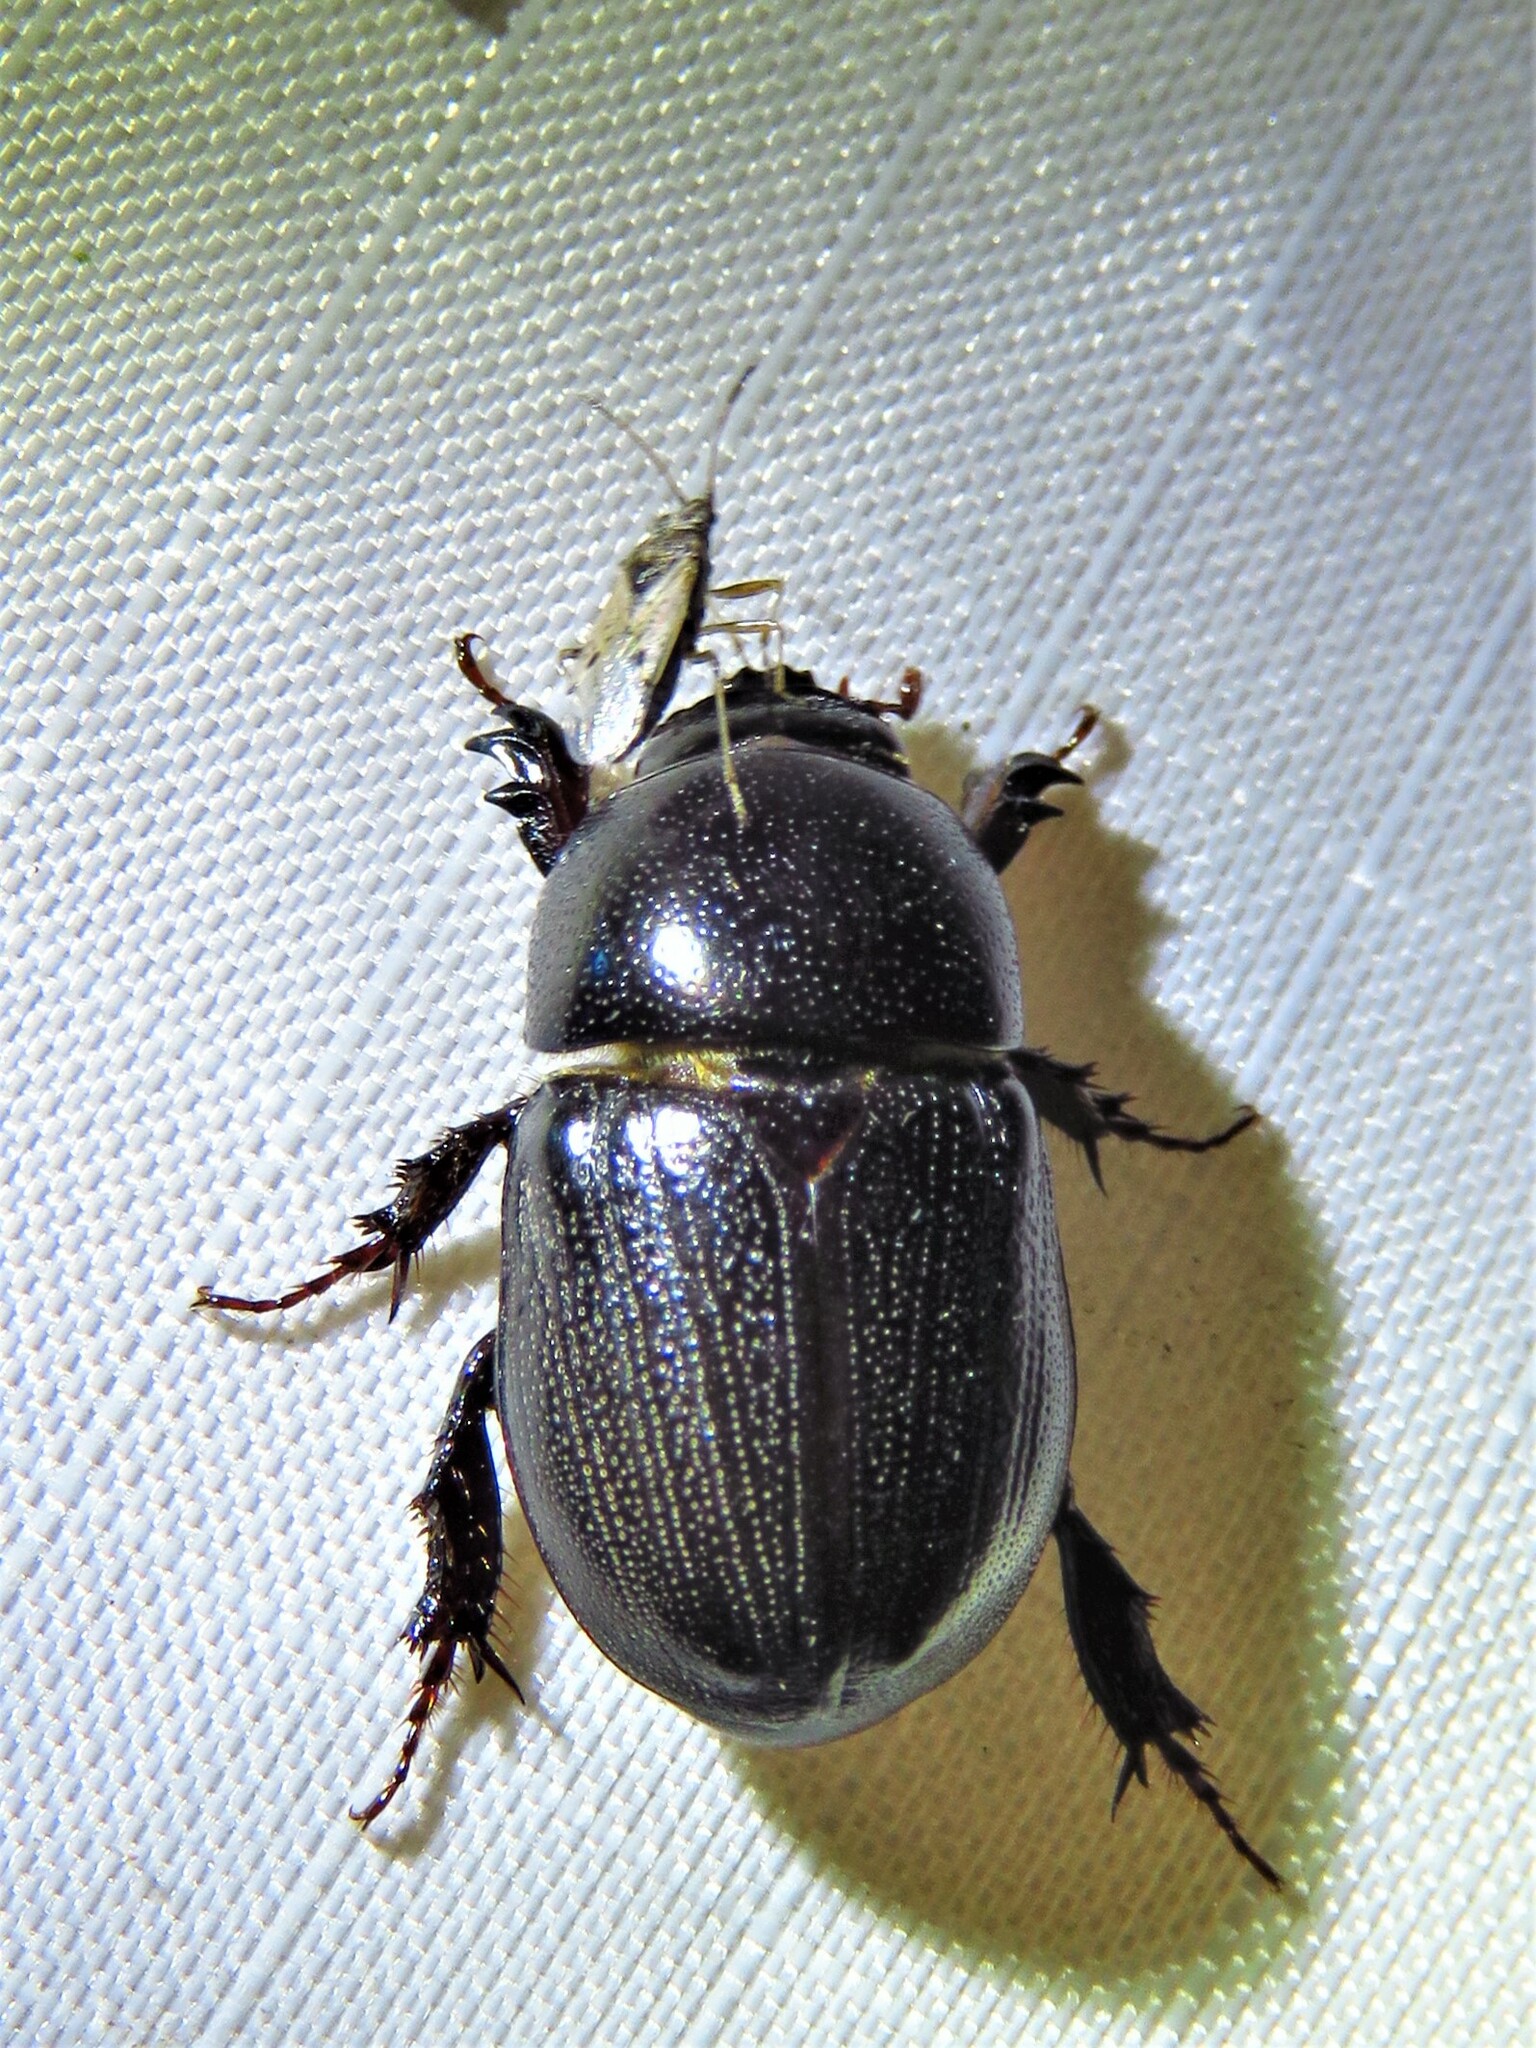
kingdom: Animalia
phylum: Arthropoda
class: Insecta
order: Coleoptera
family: Scarabaeidae
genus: Euetheola
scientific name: Euetheola humilis
